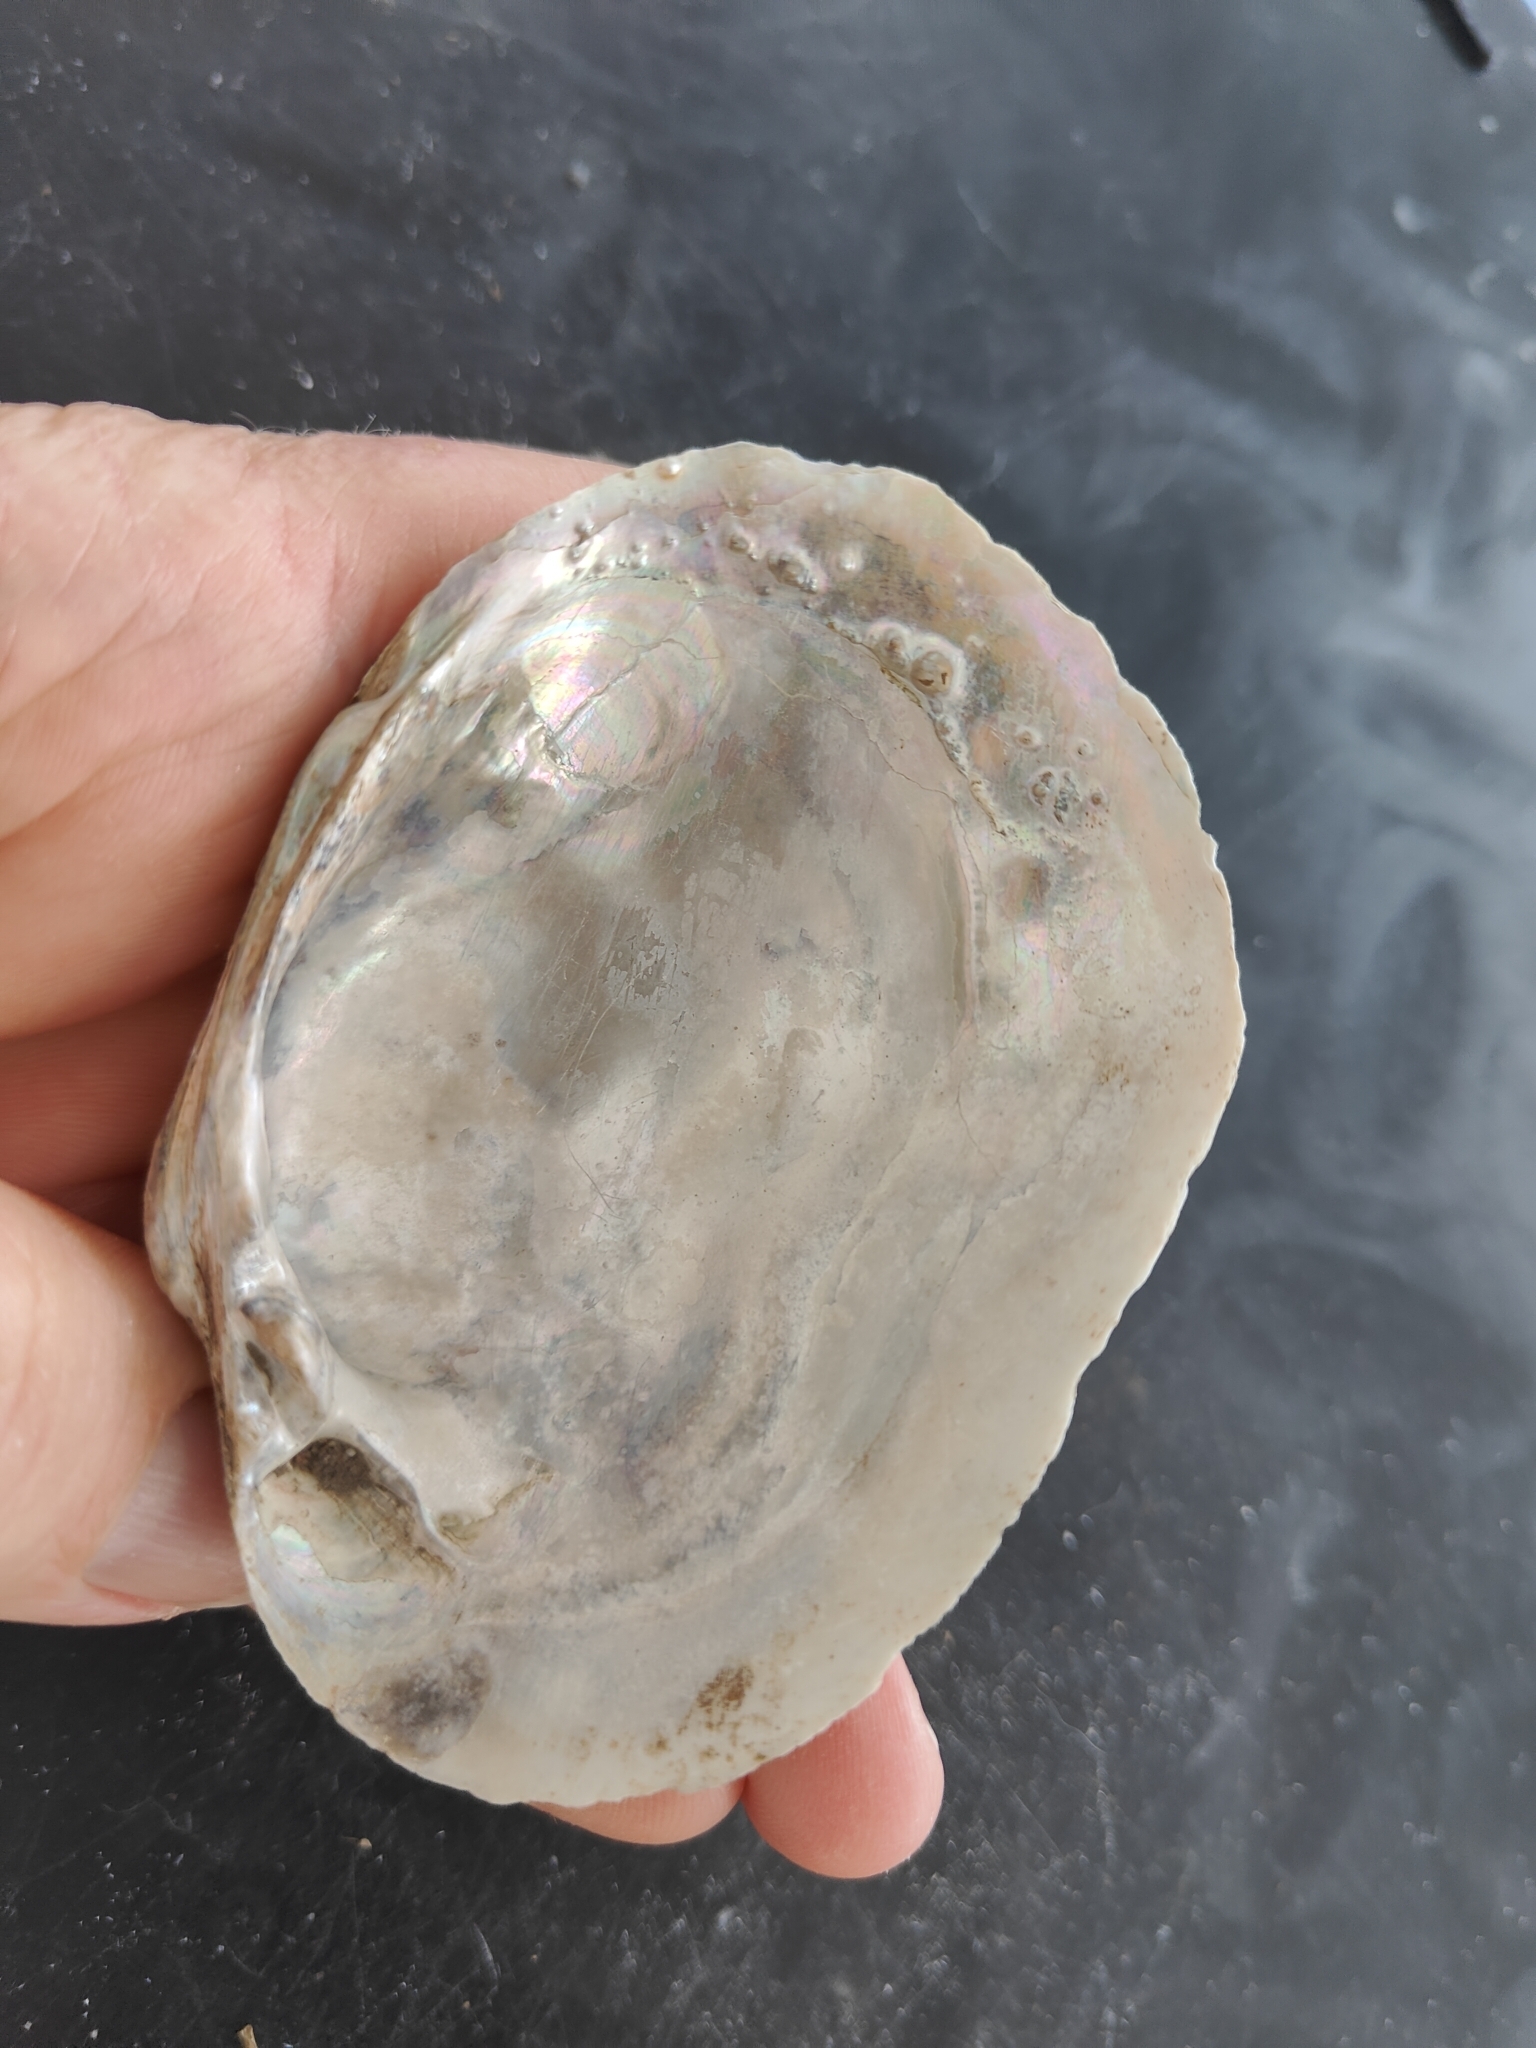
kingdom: Animalia
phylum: Mollusca
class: Bivalvia
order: Unionida
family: Unionidae
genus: Lampsilis
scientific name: Lampsilis cardium
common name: Plain pocketbook
